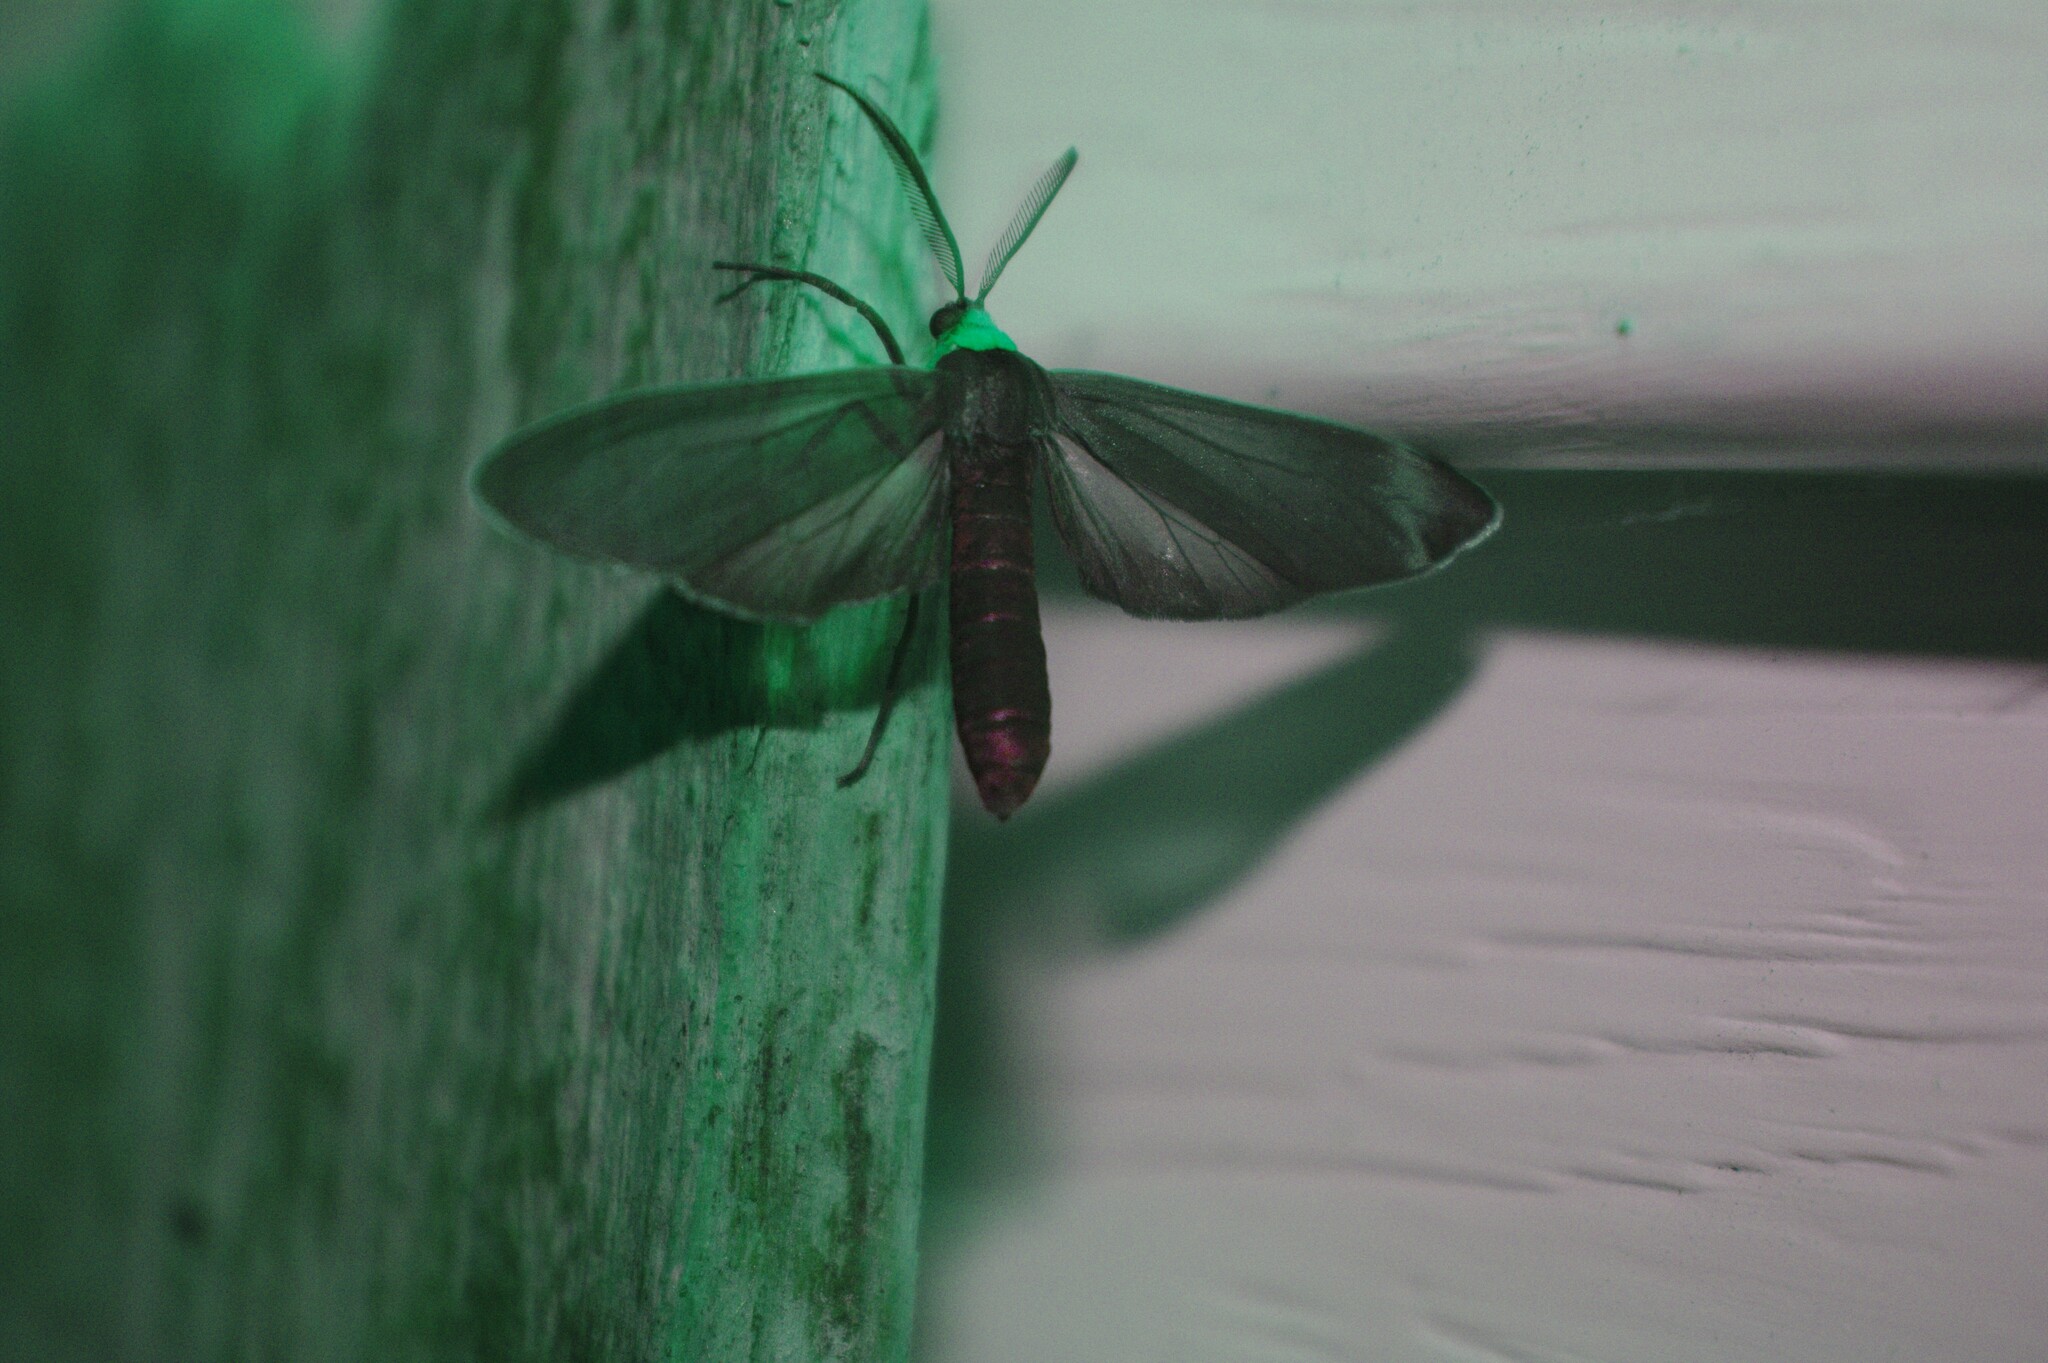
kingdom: Animalia
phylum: Arthropoda
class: Insecta
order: Lepidoptera
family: Erebidae
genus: Cisseps
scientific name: Cisseps fulvicollis
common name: Yellow-collared scape moth
